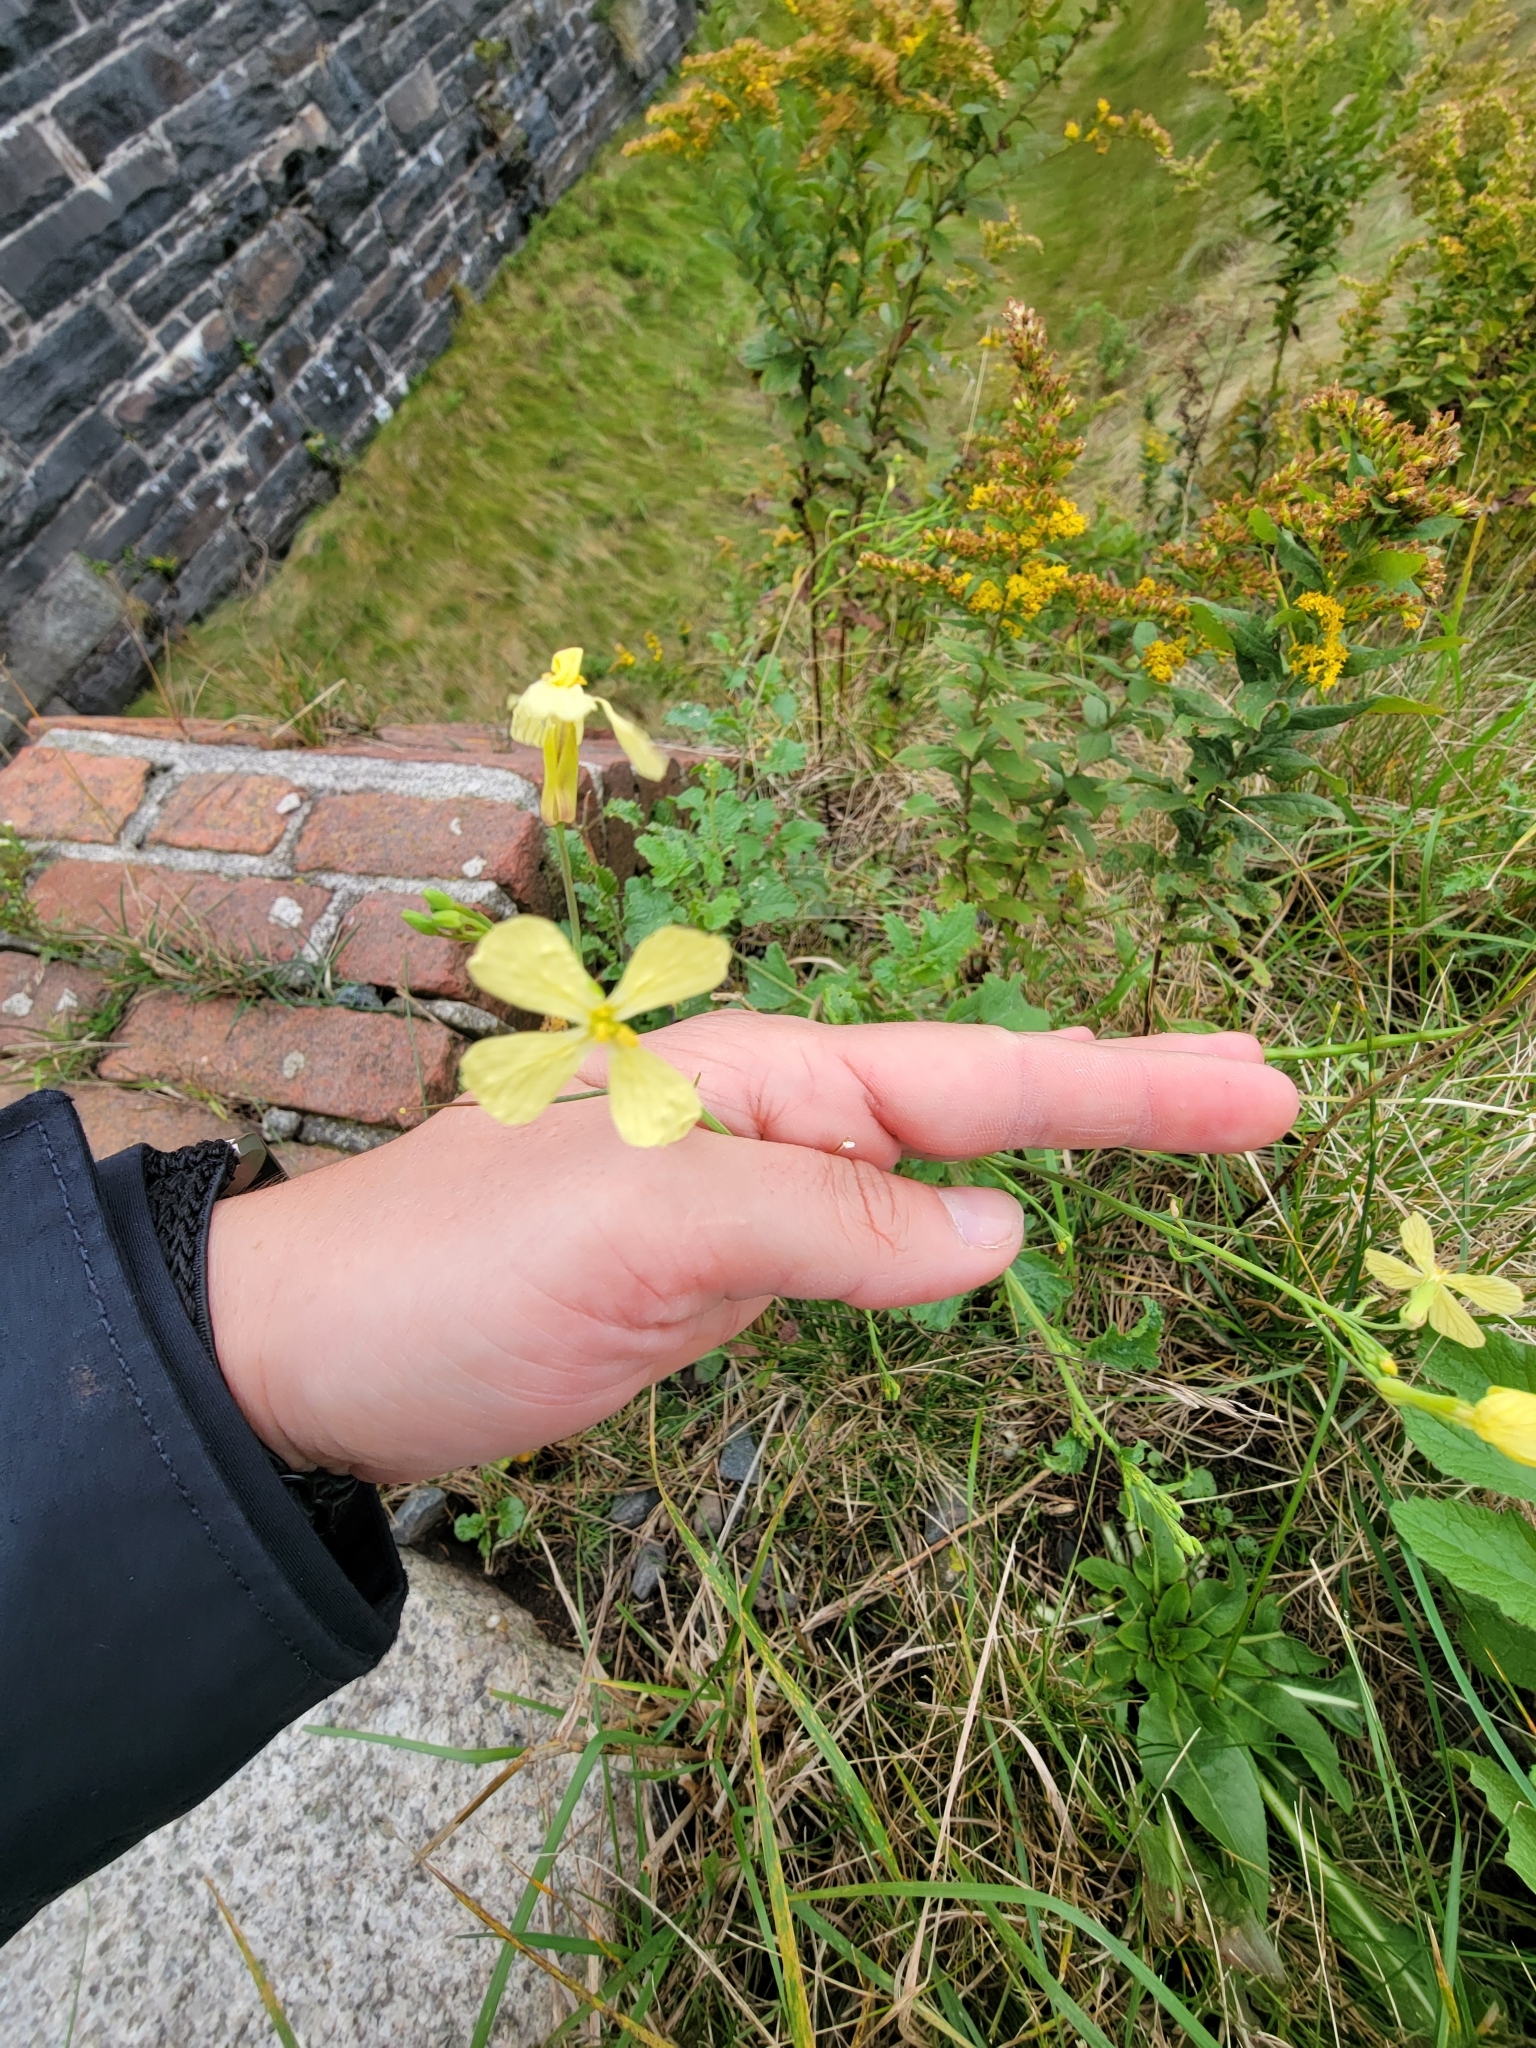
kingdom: Plantae
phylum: Tracheophyta
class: Magnoliopsida
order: Brassicales
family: Brassicaceae
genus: Raphanus
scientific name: Raphanus raphanistrum
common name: Wild radish
